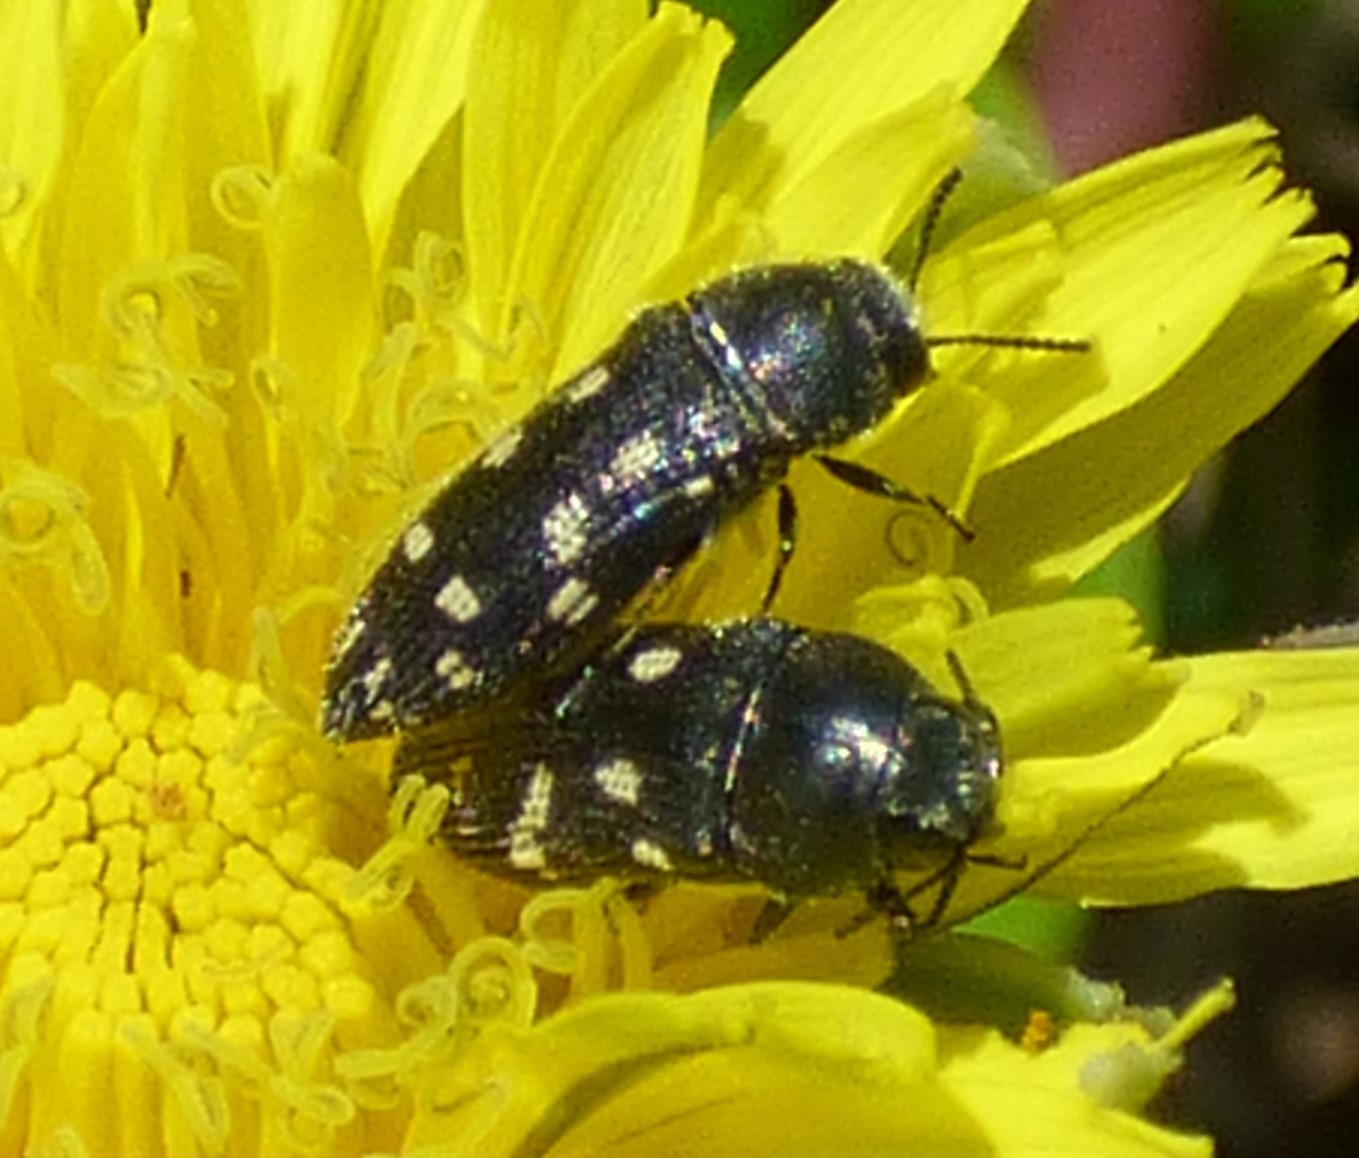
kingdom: Animalia
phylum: Arthropoda
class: Insecta
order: Coleoptera
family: Buprestidae
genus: Acmaeodera
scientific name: Acmaeodera tubulus
